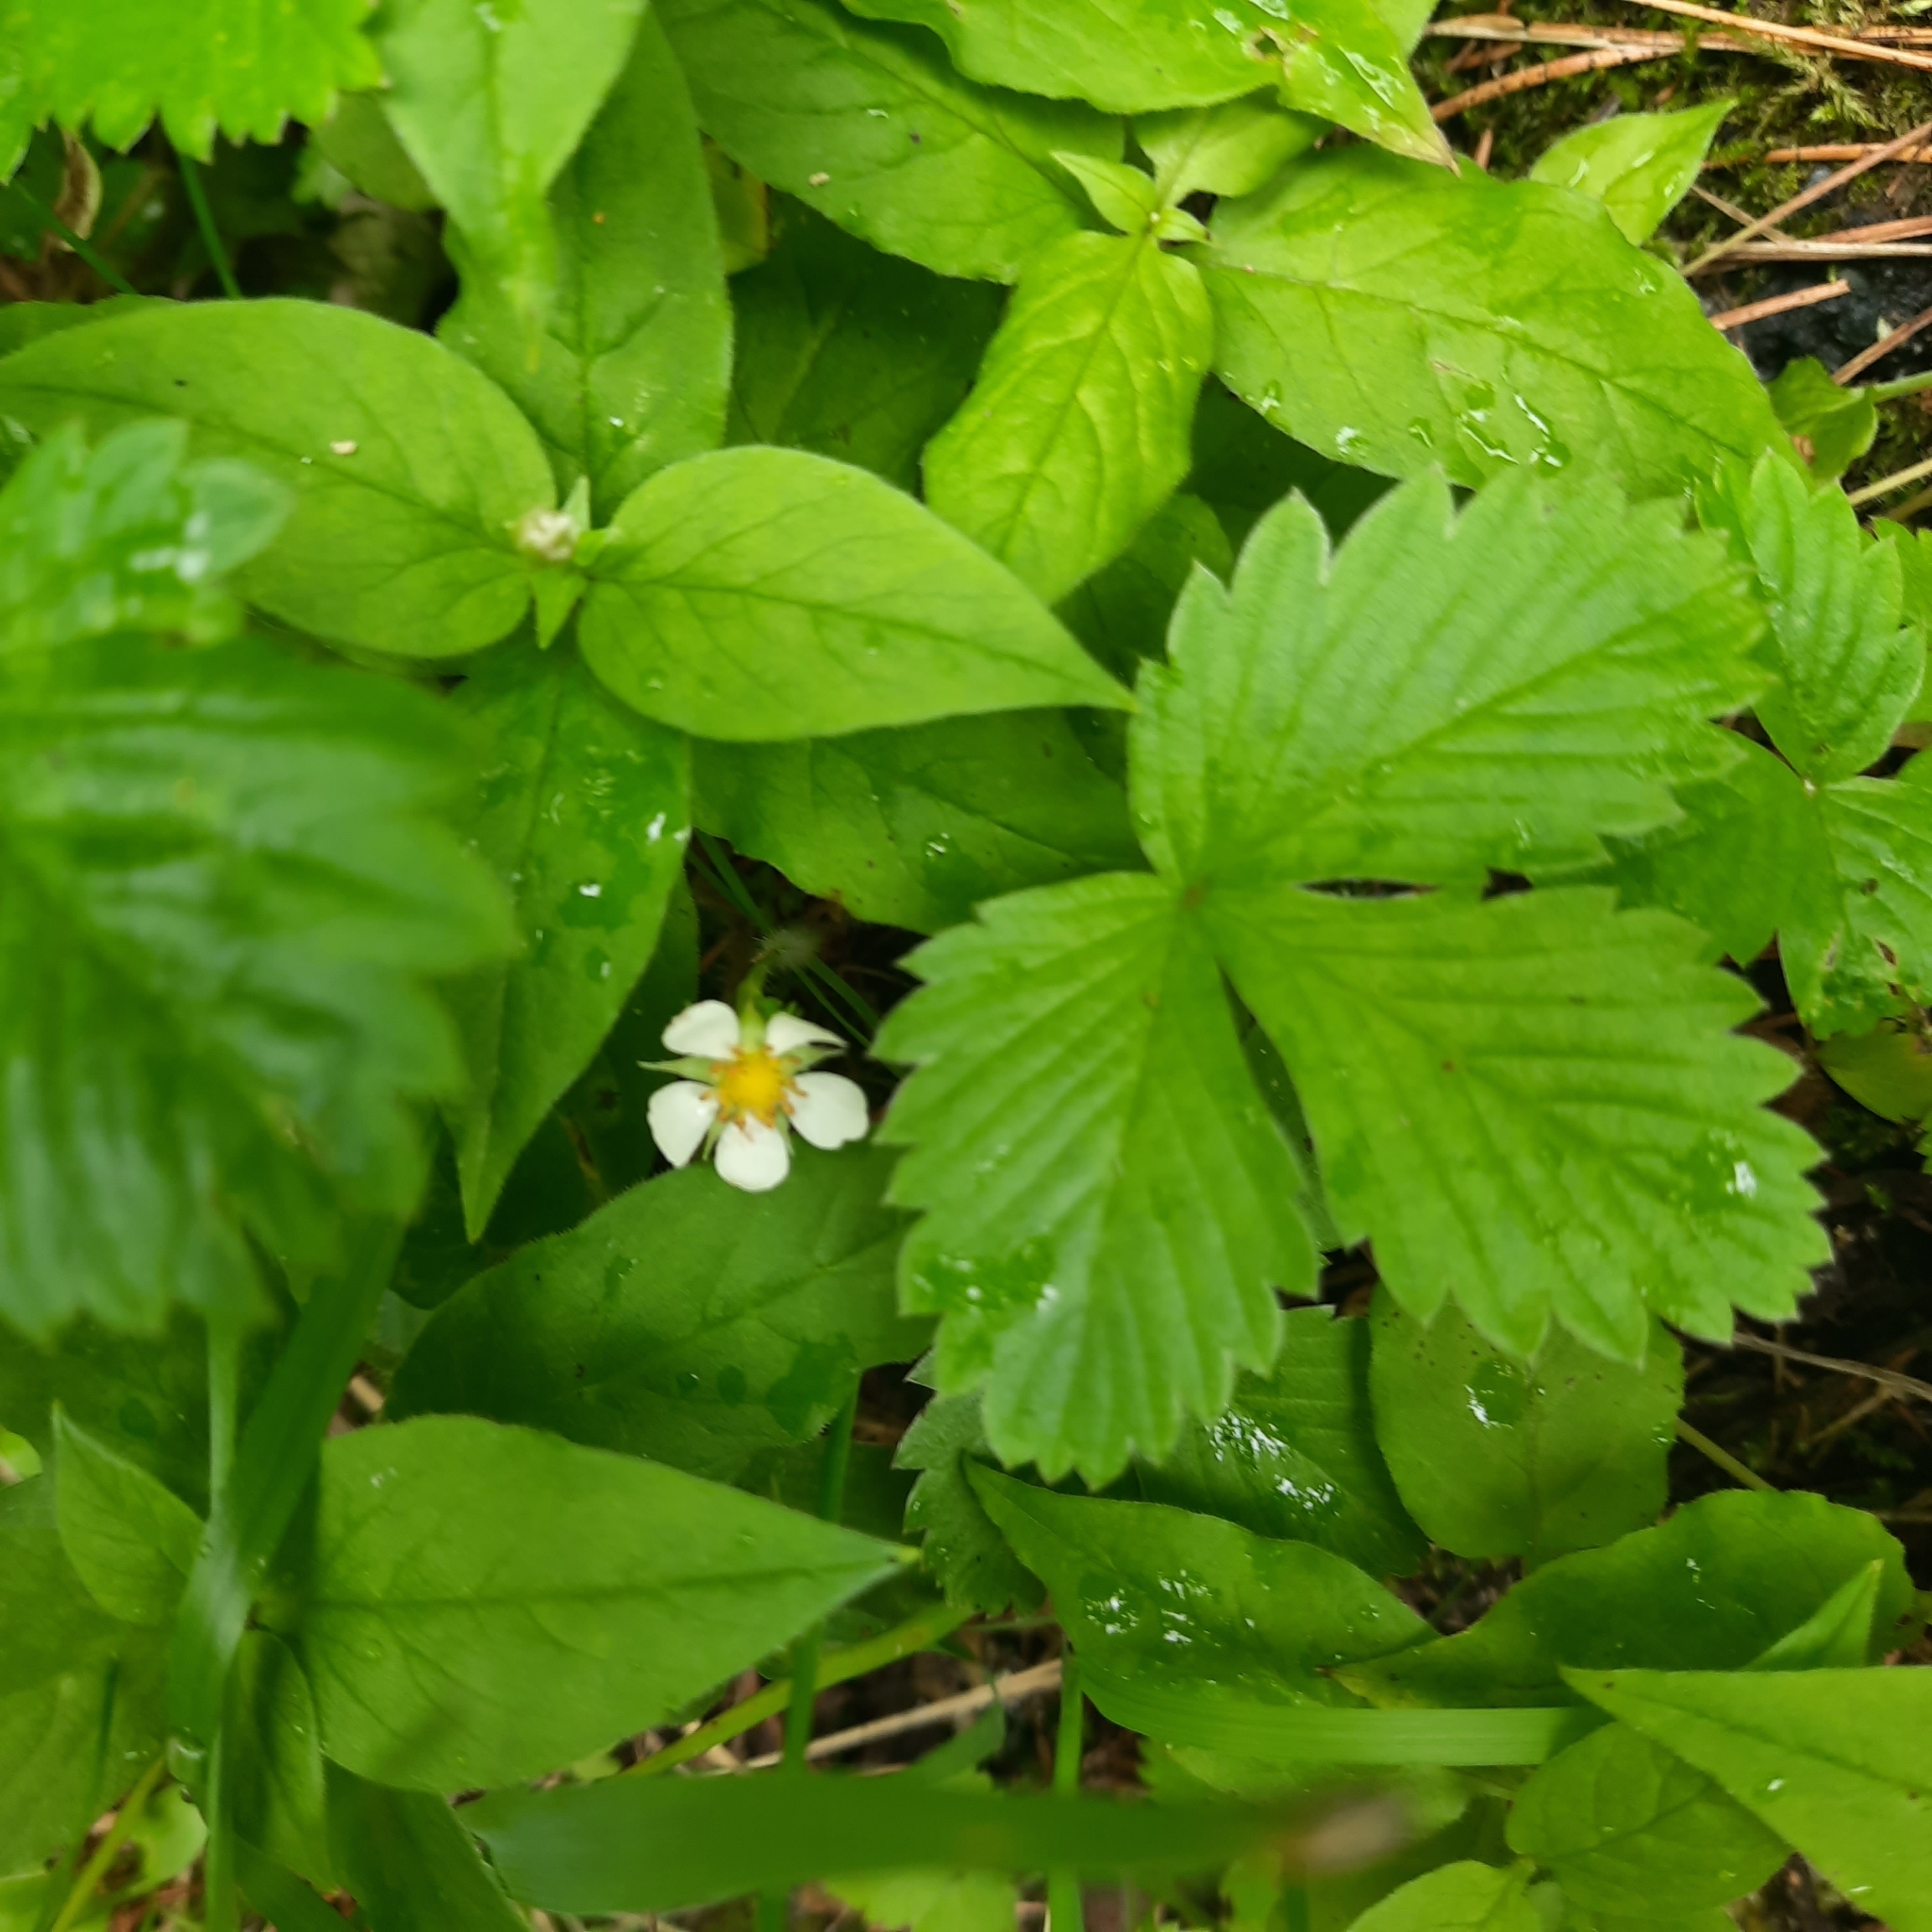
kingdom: Plantae
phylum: Tracheophyta
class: Magnoliopsida
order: Rosales
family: Rosaceae
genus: Fragaria
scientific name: Fragaria vesca
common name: Wild strawberry
